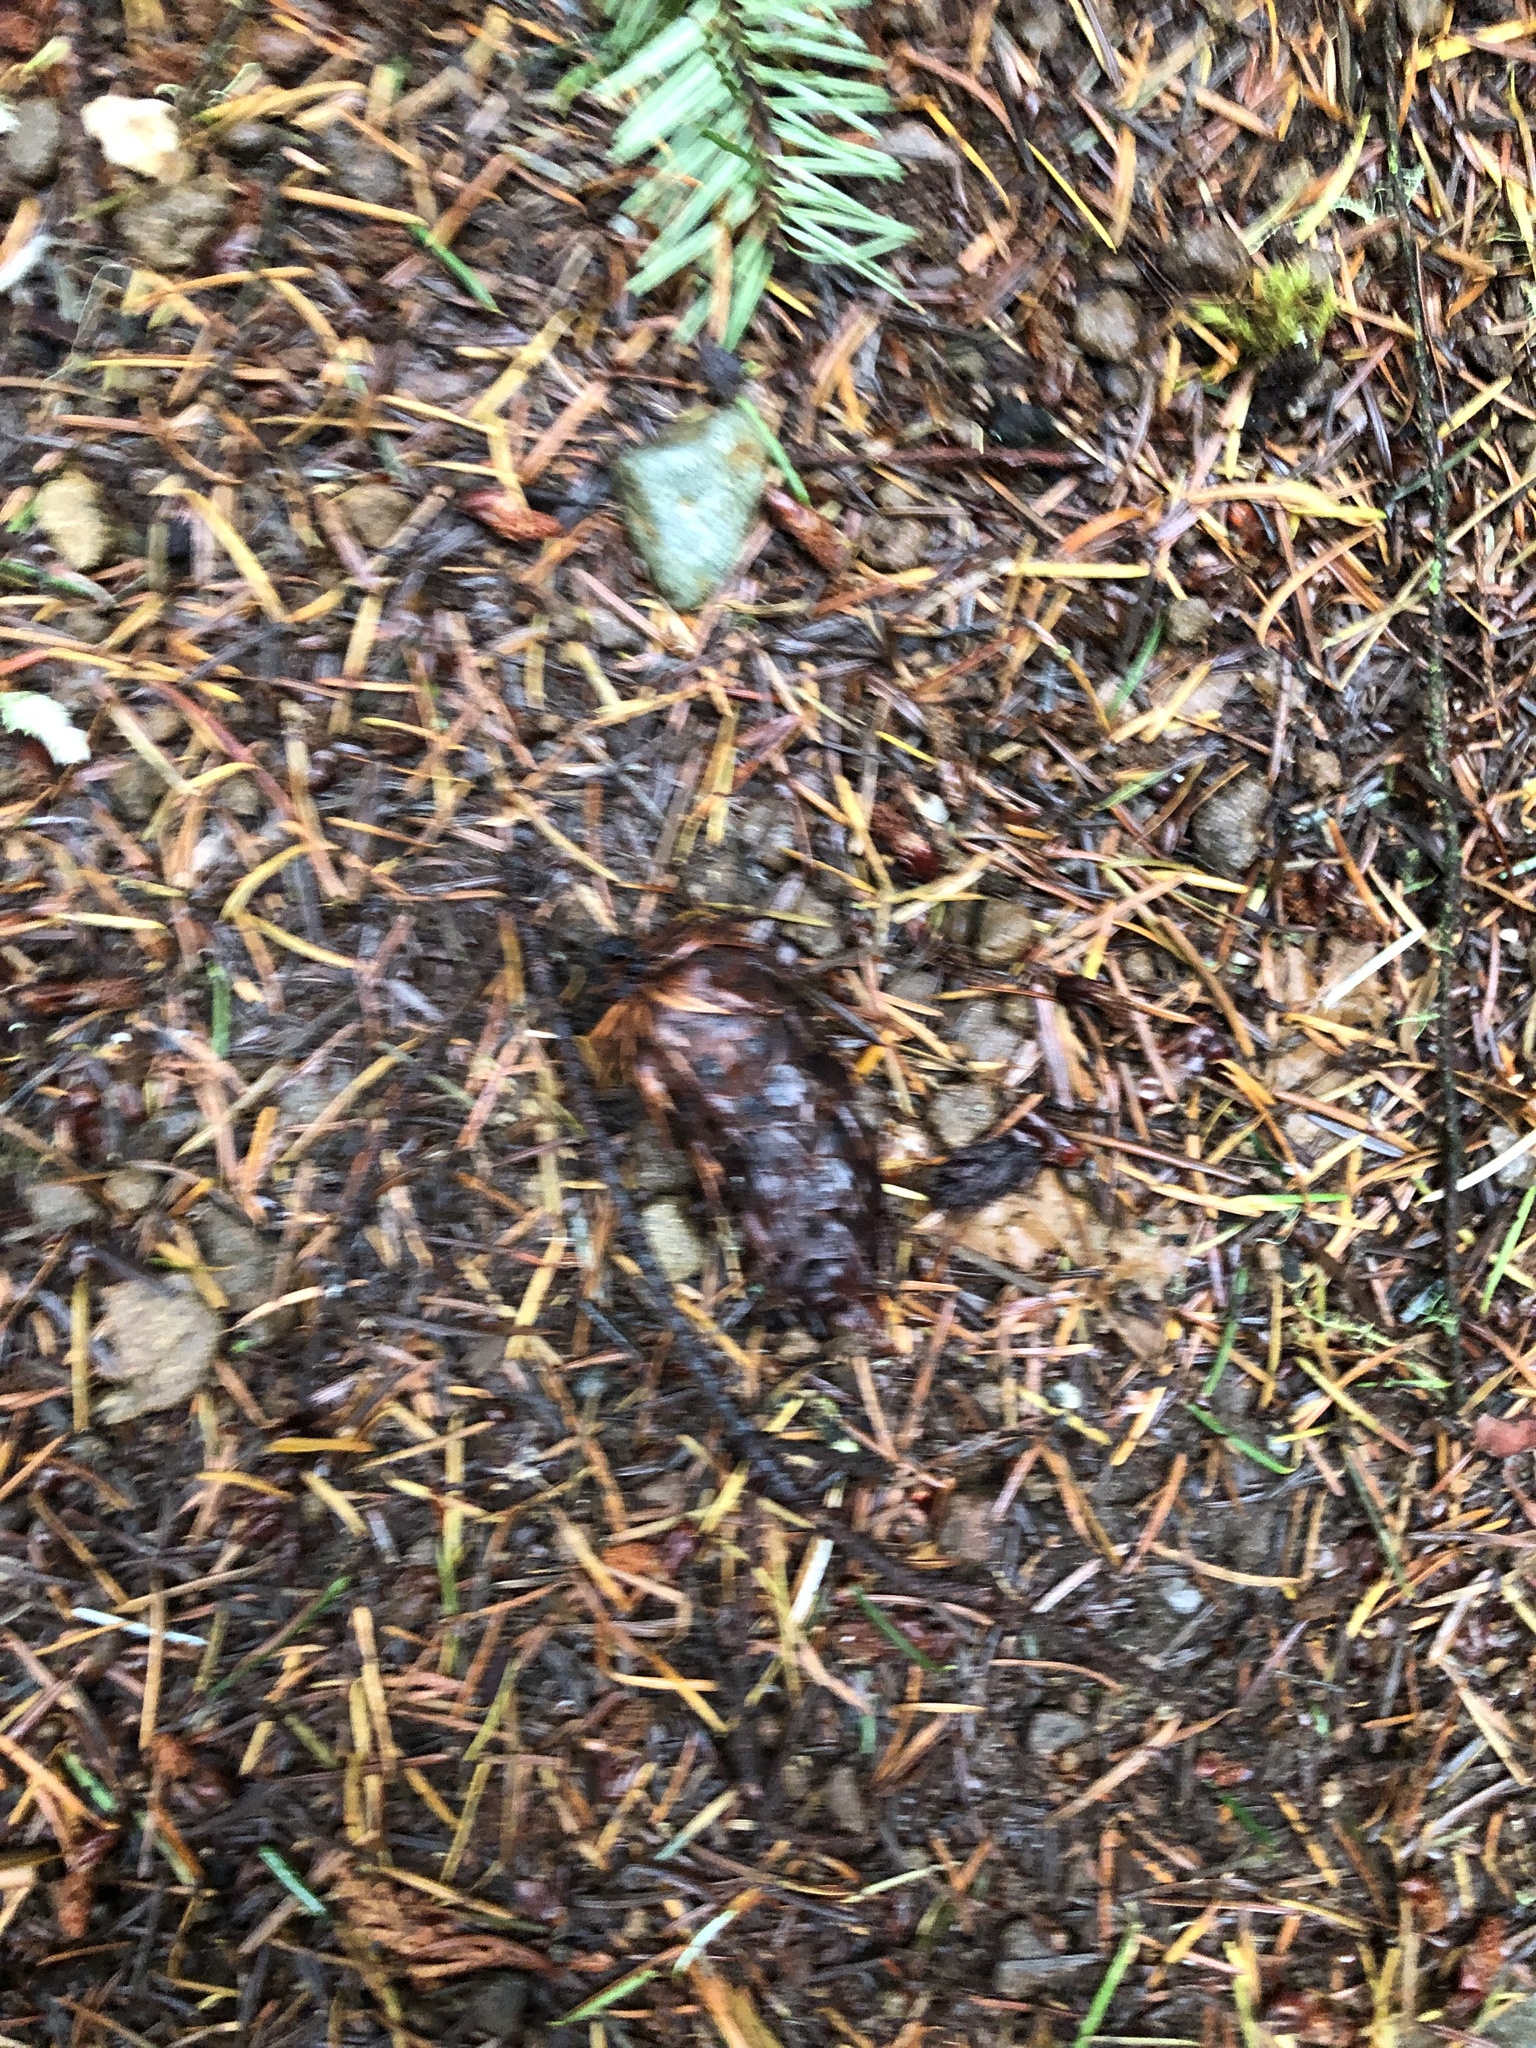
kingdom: Plantae
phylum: Tracheophyta
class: Pinopsida
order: Pinales
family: Pinaceae
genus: Pseudotsuga
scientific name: Pseudotsuga menziesii
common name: Douglas fir
